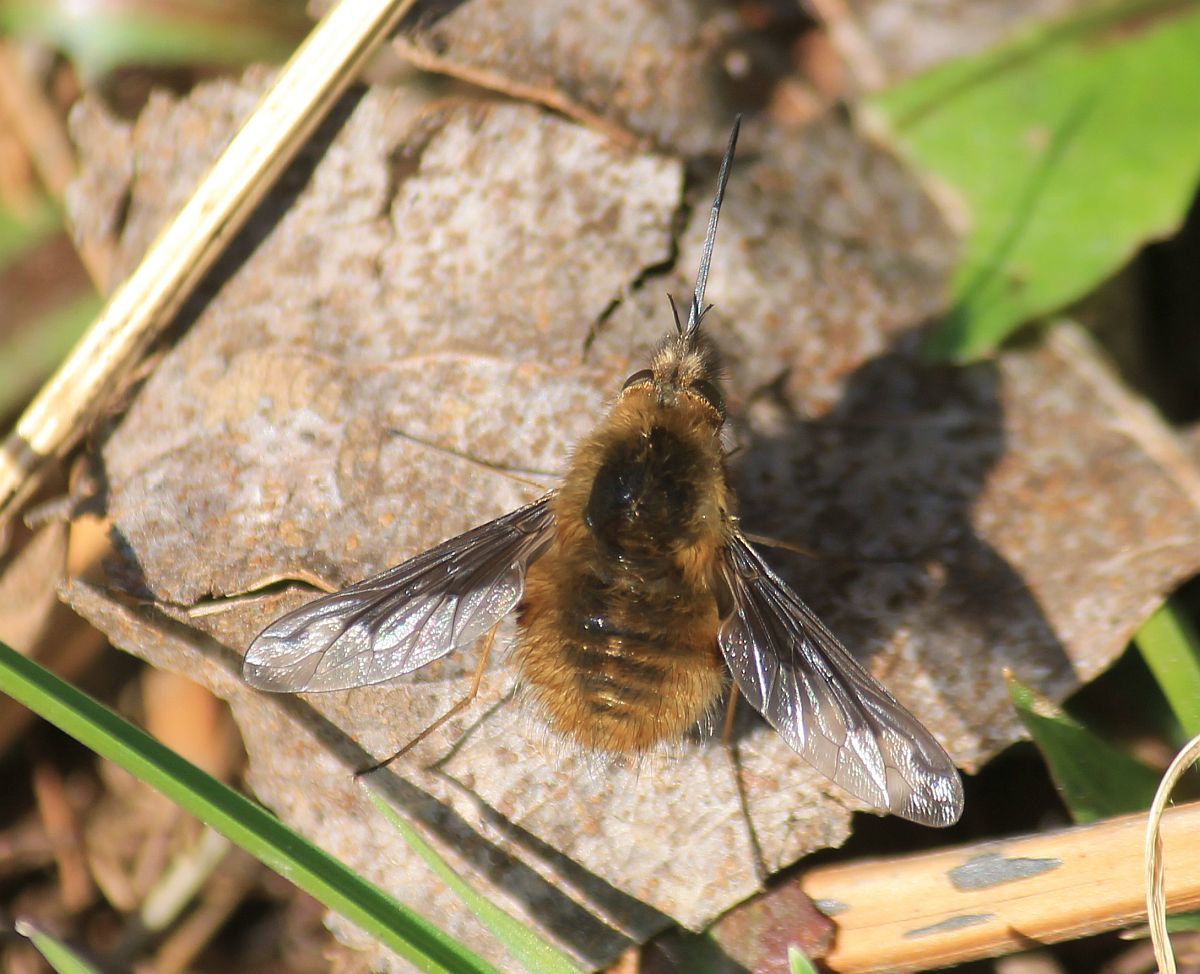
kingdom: Animalia
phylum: Arthropoda
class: Insecta
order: Diptera
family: Bombyliidae
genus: Bombylius
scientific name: Bombylius major
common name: Bee fly
